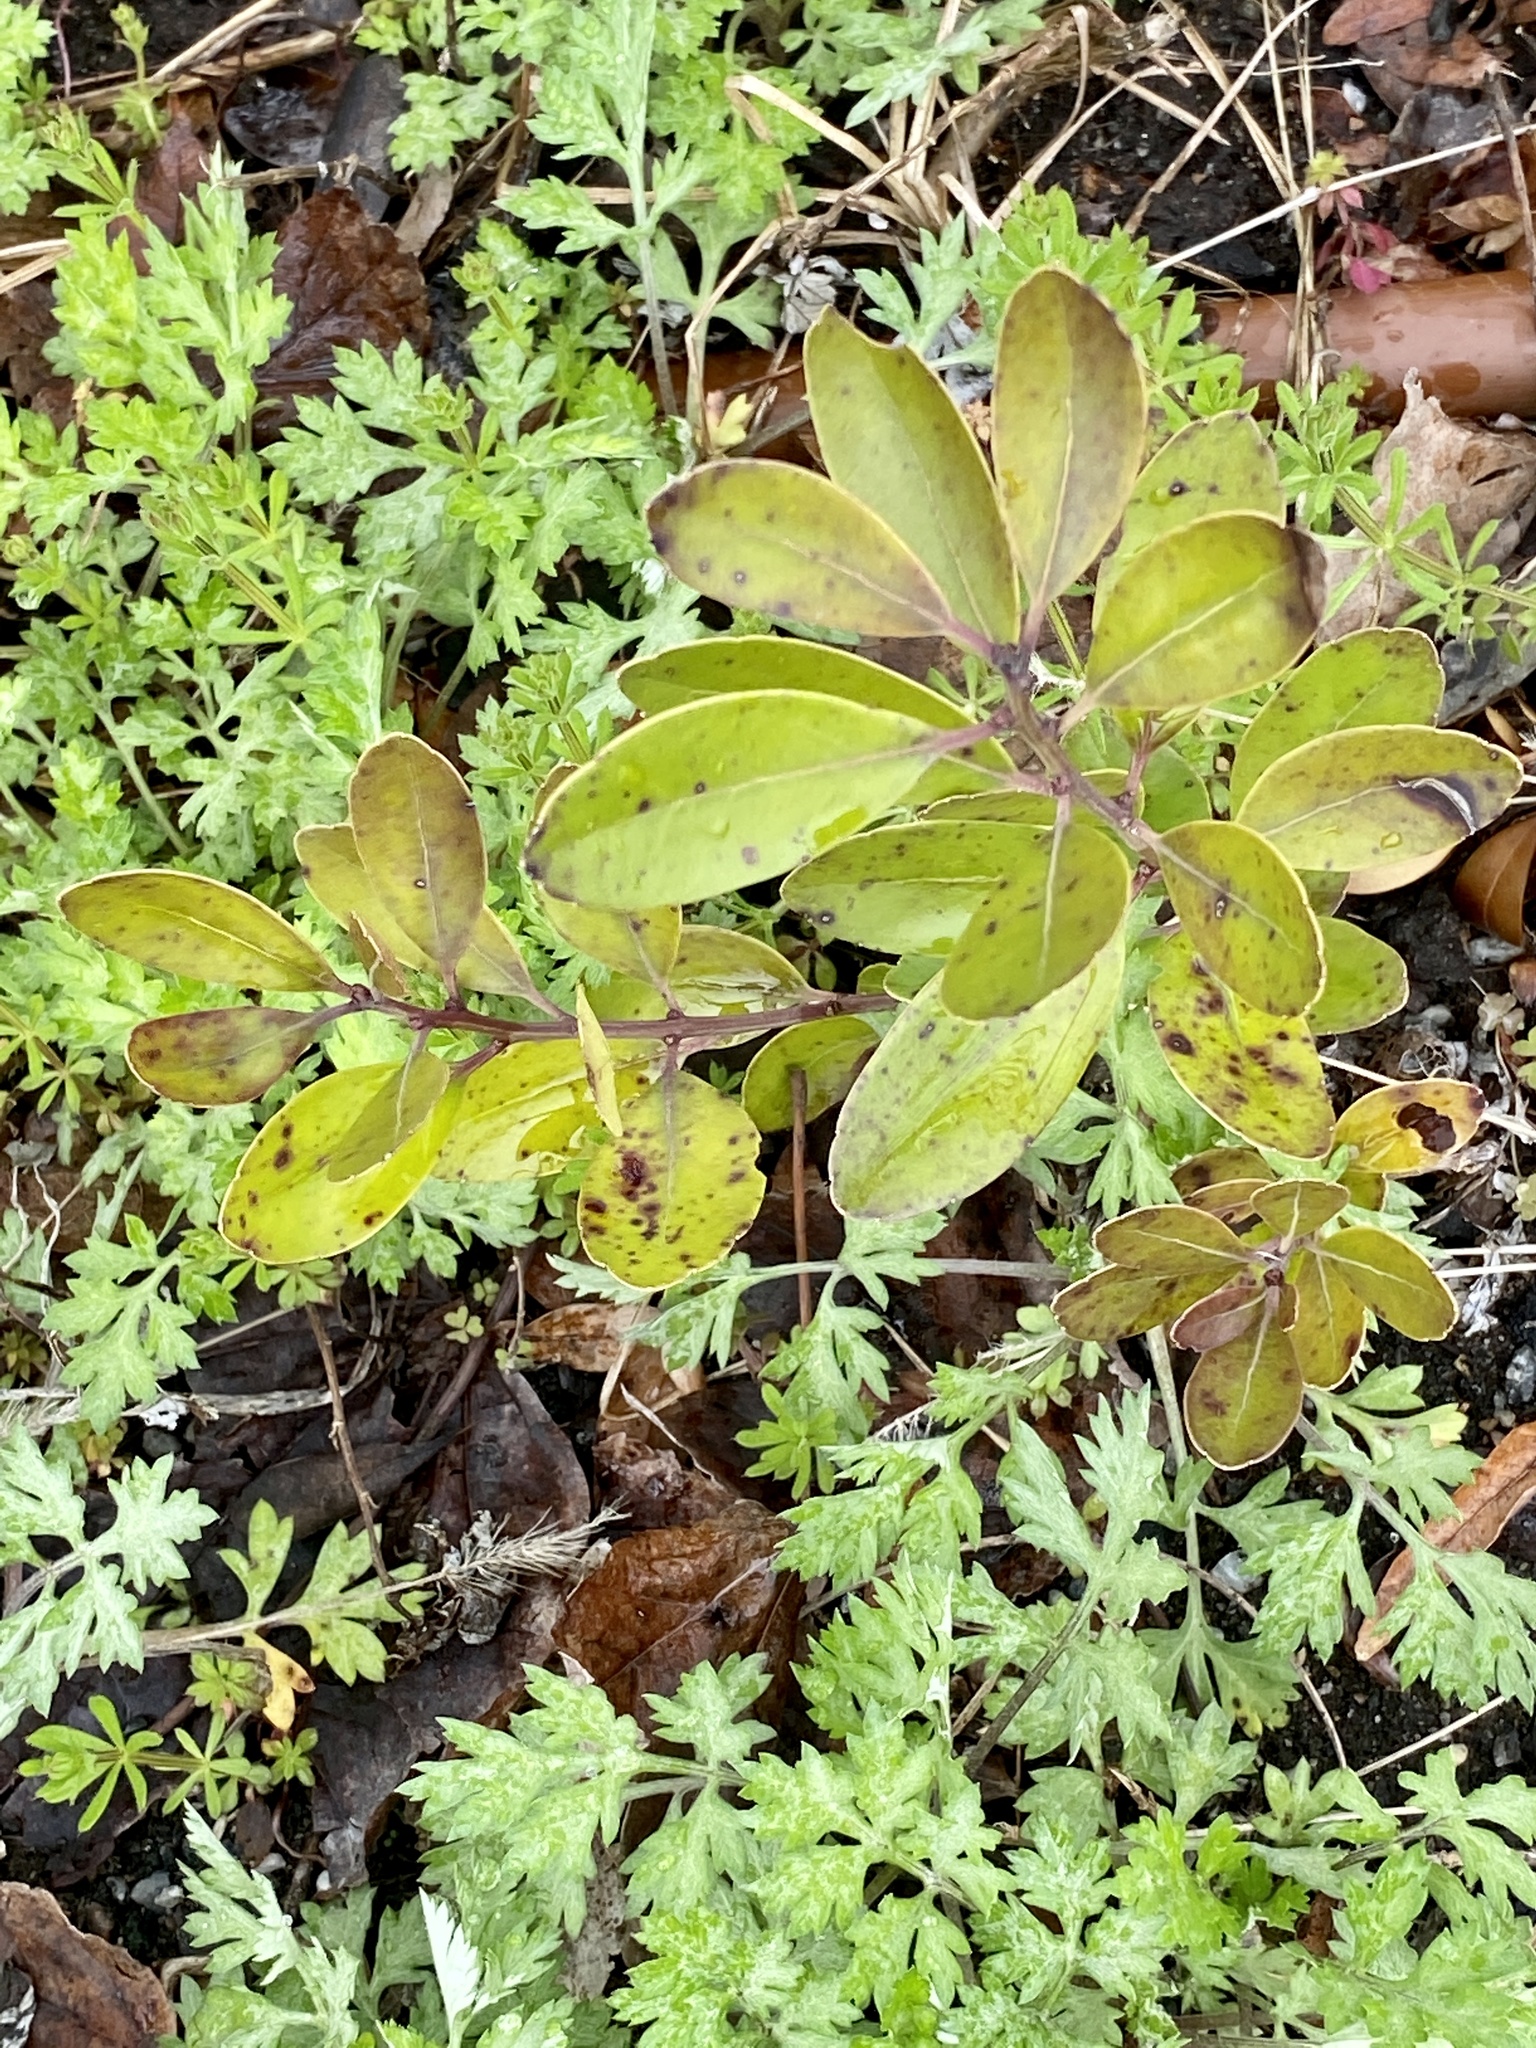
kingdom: Plantae
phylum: Tracheophyta
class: Magnoliopsida
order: Aquifoliales
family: Aquifoliaceae
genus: Ilex
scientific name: Ilex glabra
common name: Bitter gallberry
